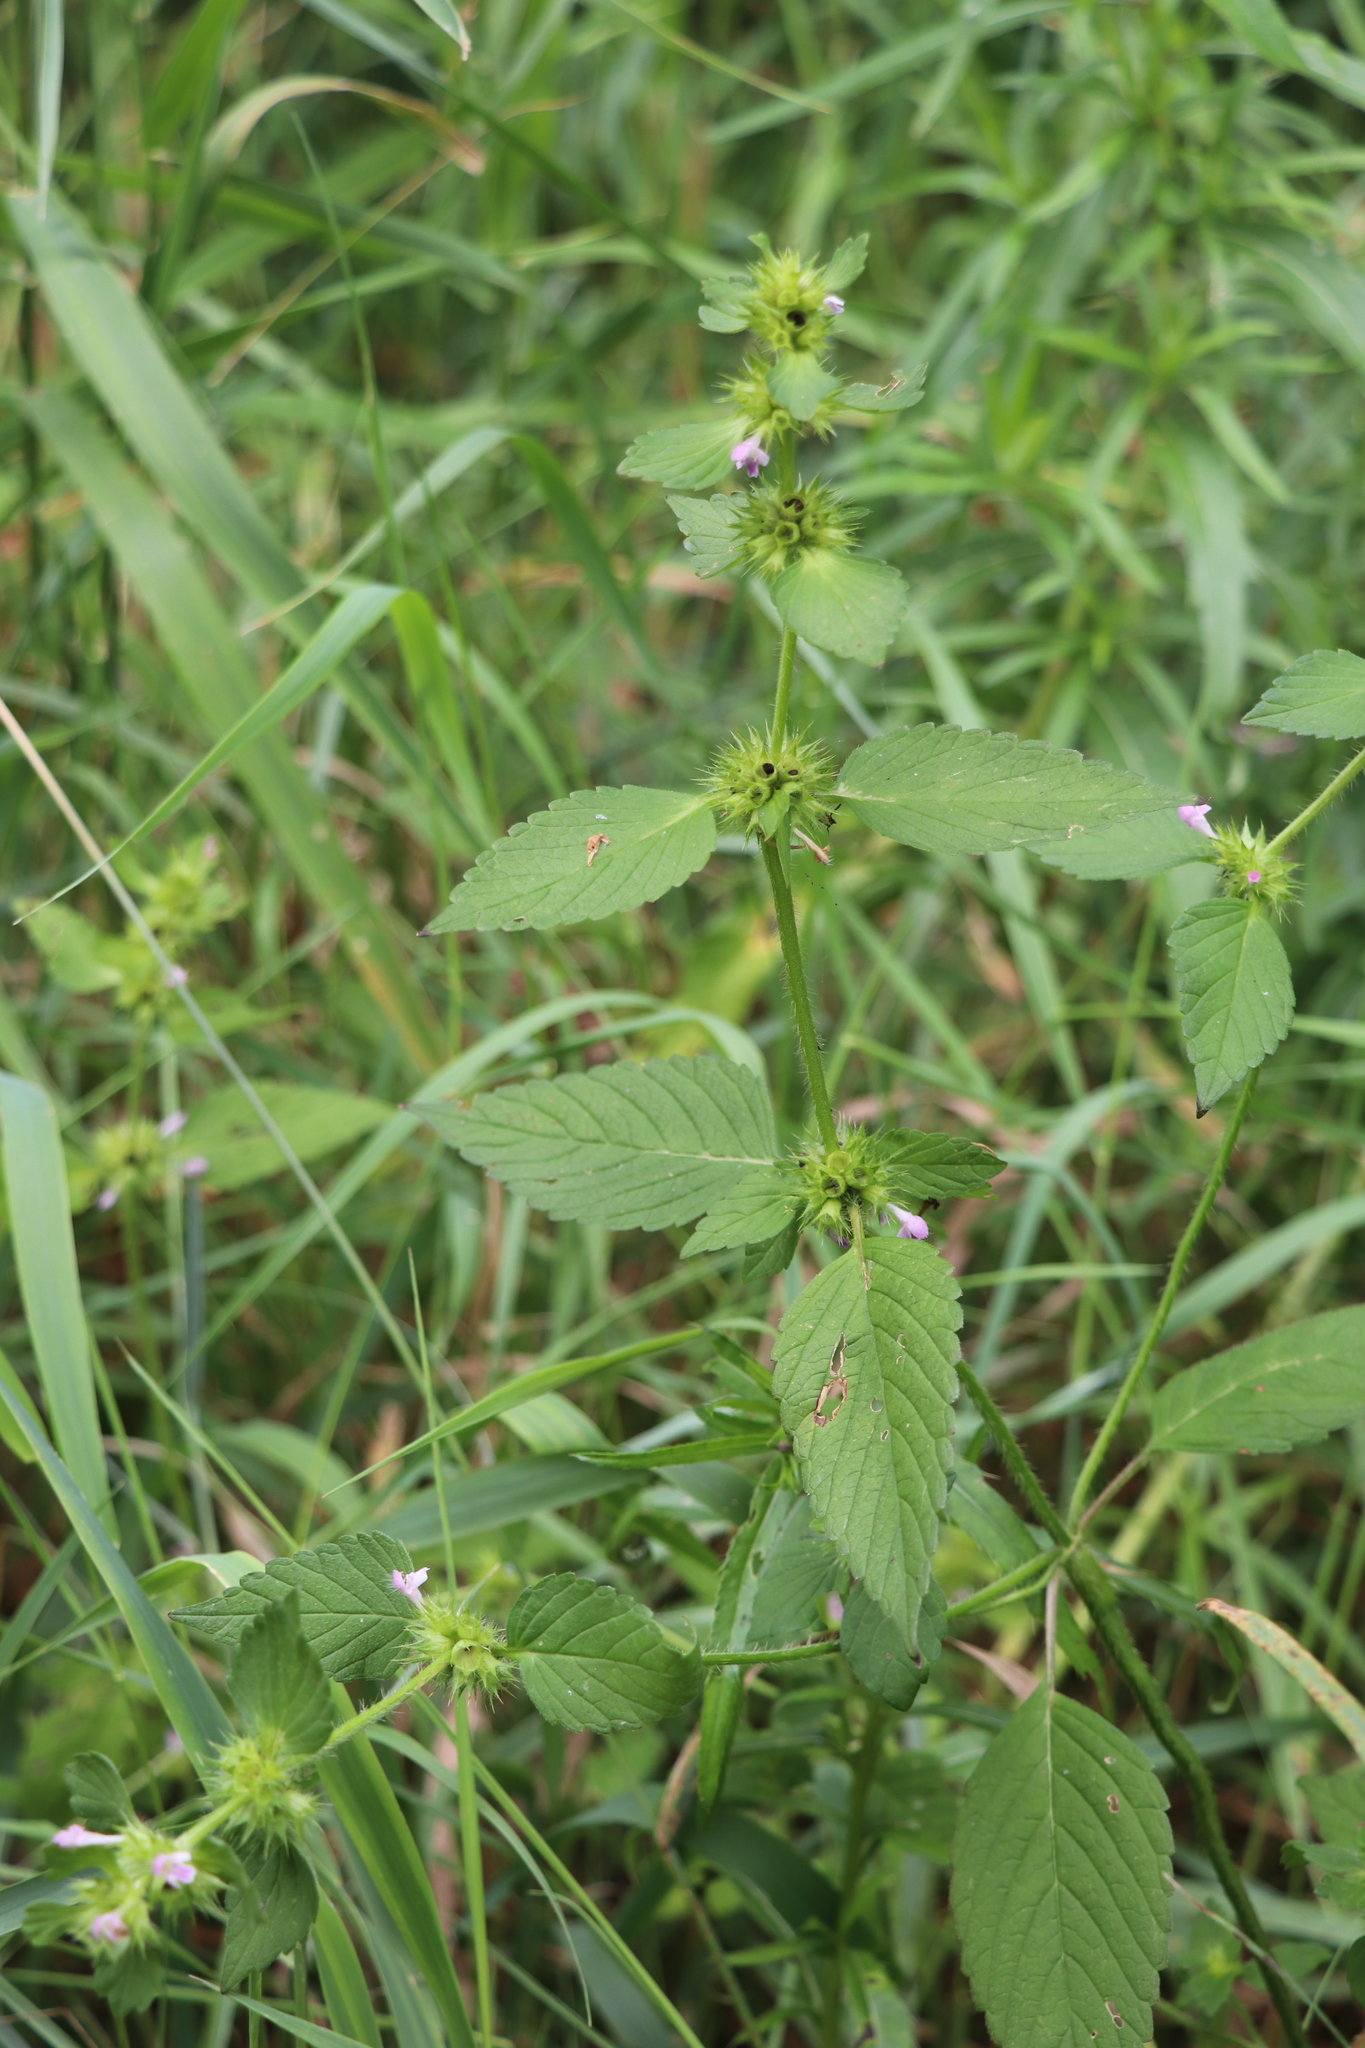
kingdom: Plantae
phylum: Tracheophyta
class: Magnoliopsida
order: Lamiales
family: Lamiaceae
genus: Galeopsis
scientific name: Galeopsis bifida
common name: Bifid hemp-nettle
